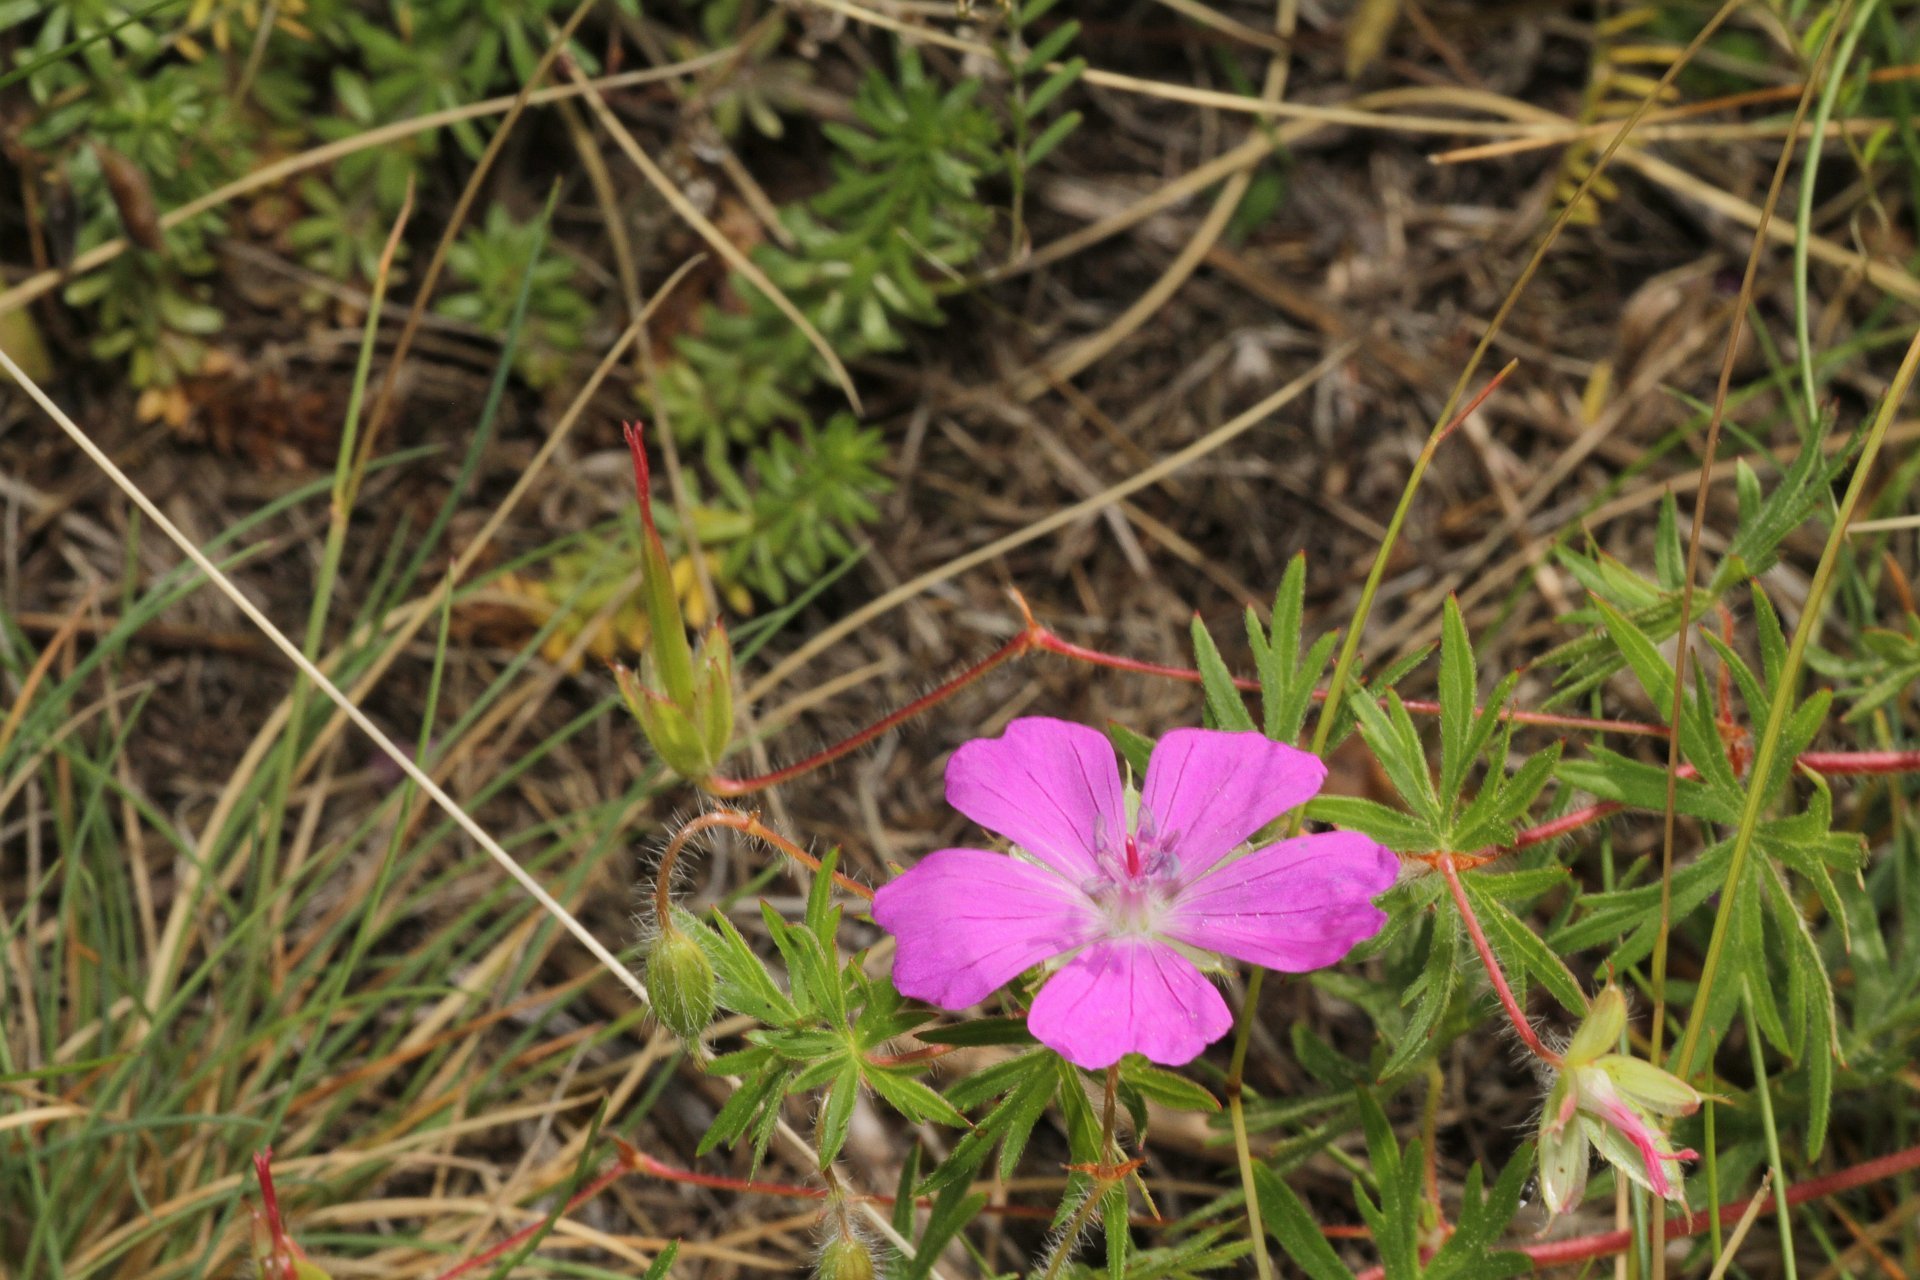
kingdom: Plantae
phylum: Tracheophyta
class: Magnoliopsida
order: Geraniales
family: Geraniaceae
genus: Geranium
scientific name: Geranium sanguineum
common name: Bloody crane's-bill
